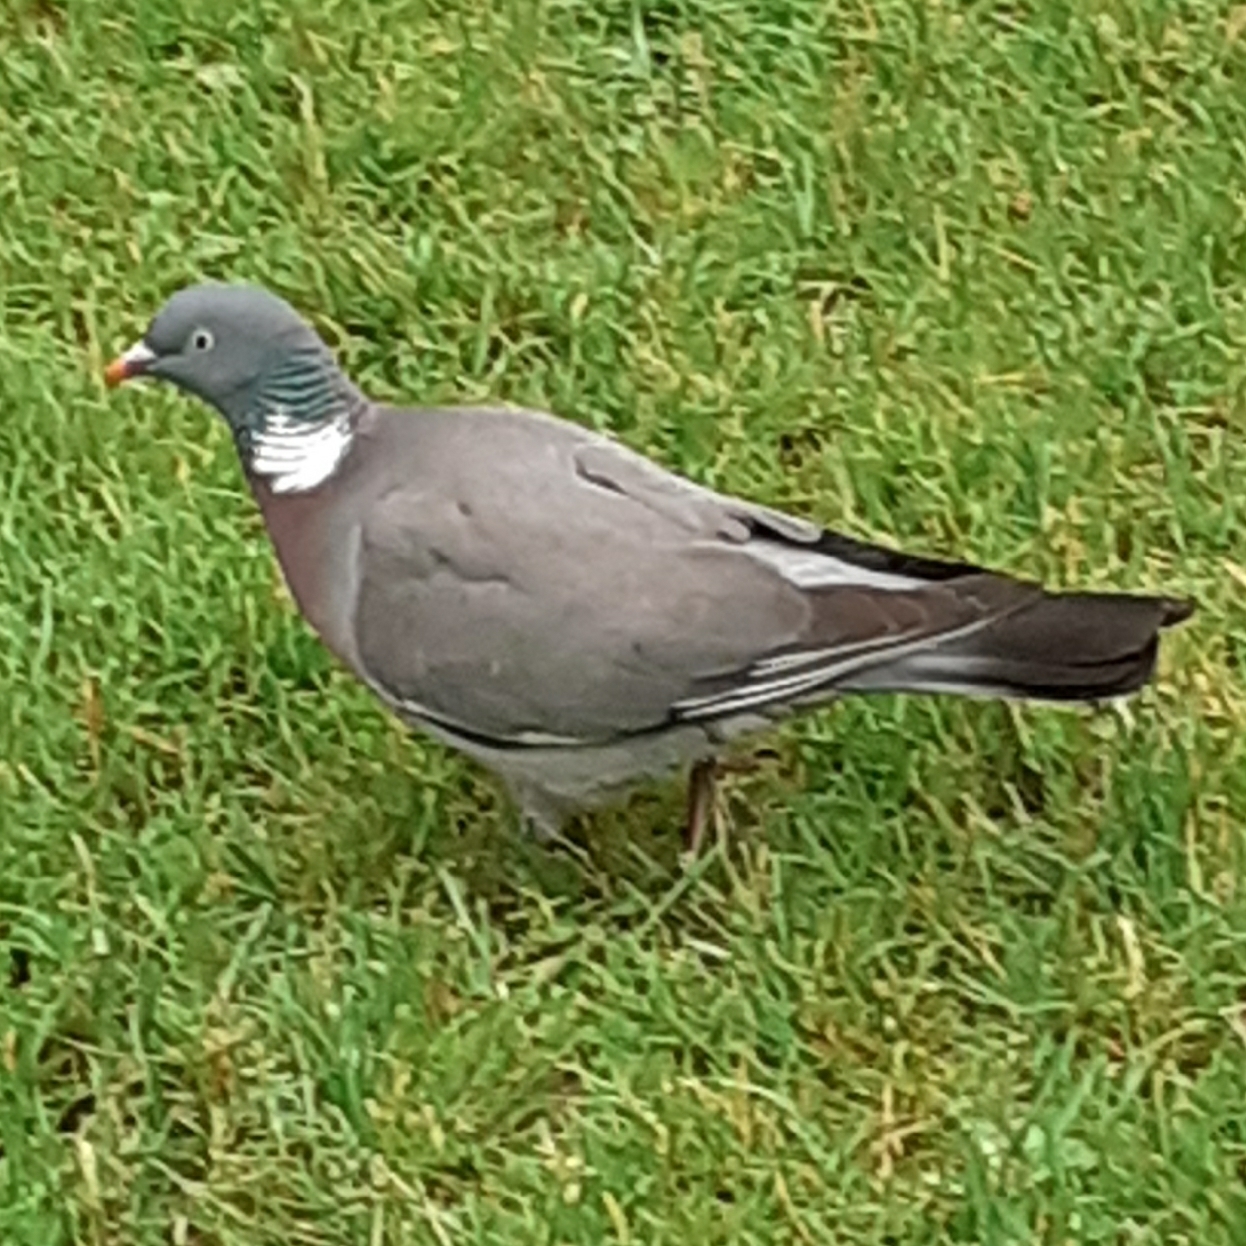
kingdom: Animalia
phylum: Chordata
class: Aves
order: Columbiformes
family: Columbidae
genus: Columba
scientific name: Columba palumbus
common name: Common wood pigeon
